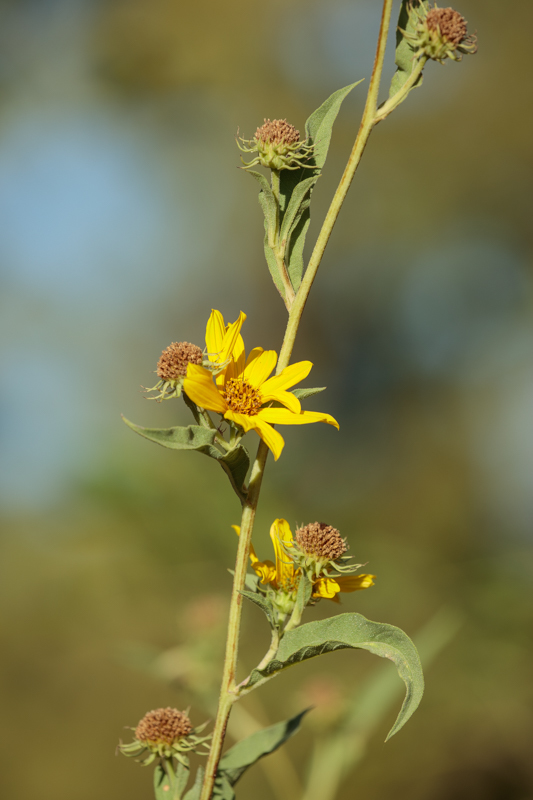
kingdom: Plantae
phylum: Tracheophyta
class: Magnoliopsida
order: Asterales
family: Asteraceae
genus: Helianthus
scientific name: Helianthus maximiliani
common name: Maximilian's sunflower
